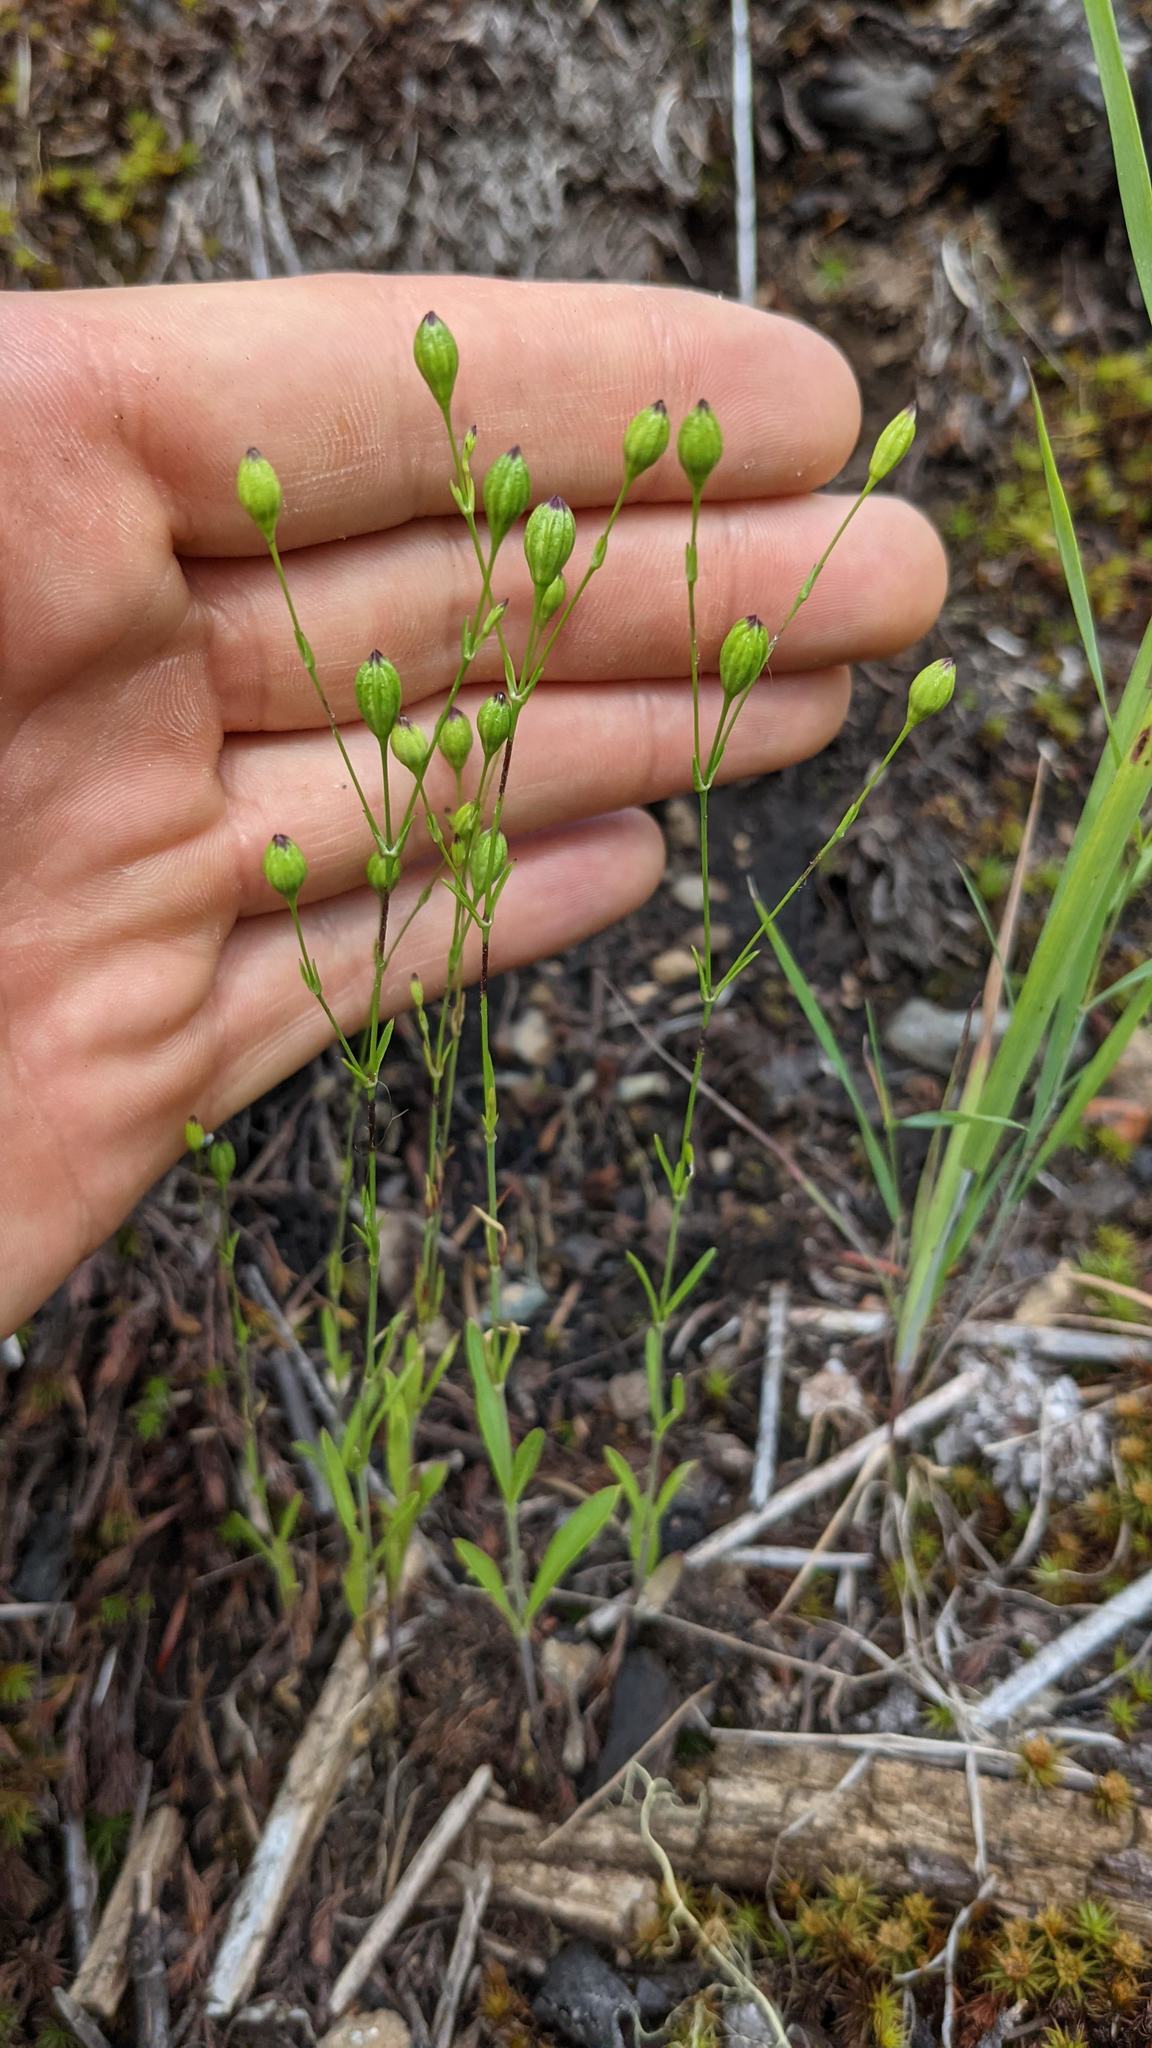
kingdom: Plantae
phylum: Tracheophyta
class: Magnoliopsida
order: Caryophyllales
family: Caryophyllaceae
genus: Silene
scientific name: Silene antirrhina
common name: Sleepy catchfly
